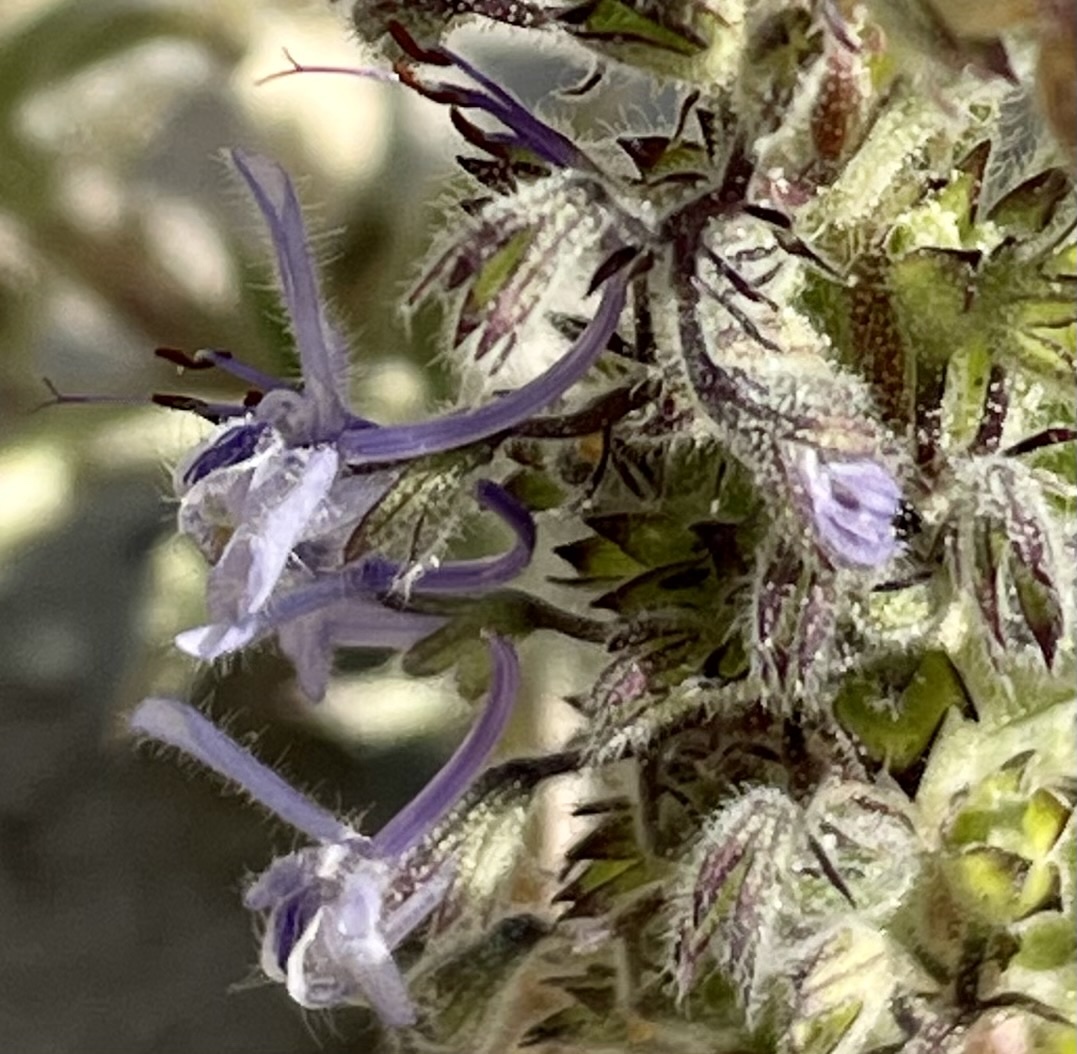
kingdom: Plantae
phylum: Tracheophyta
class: Magnoliopsida
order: Lamiales
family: Lamiaceae
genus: Trichostema
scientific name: Trichostema lanceolatum
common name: Vinegar-weed
